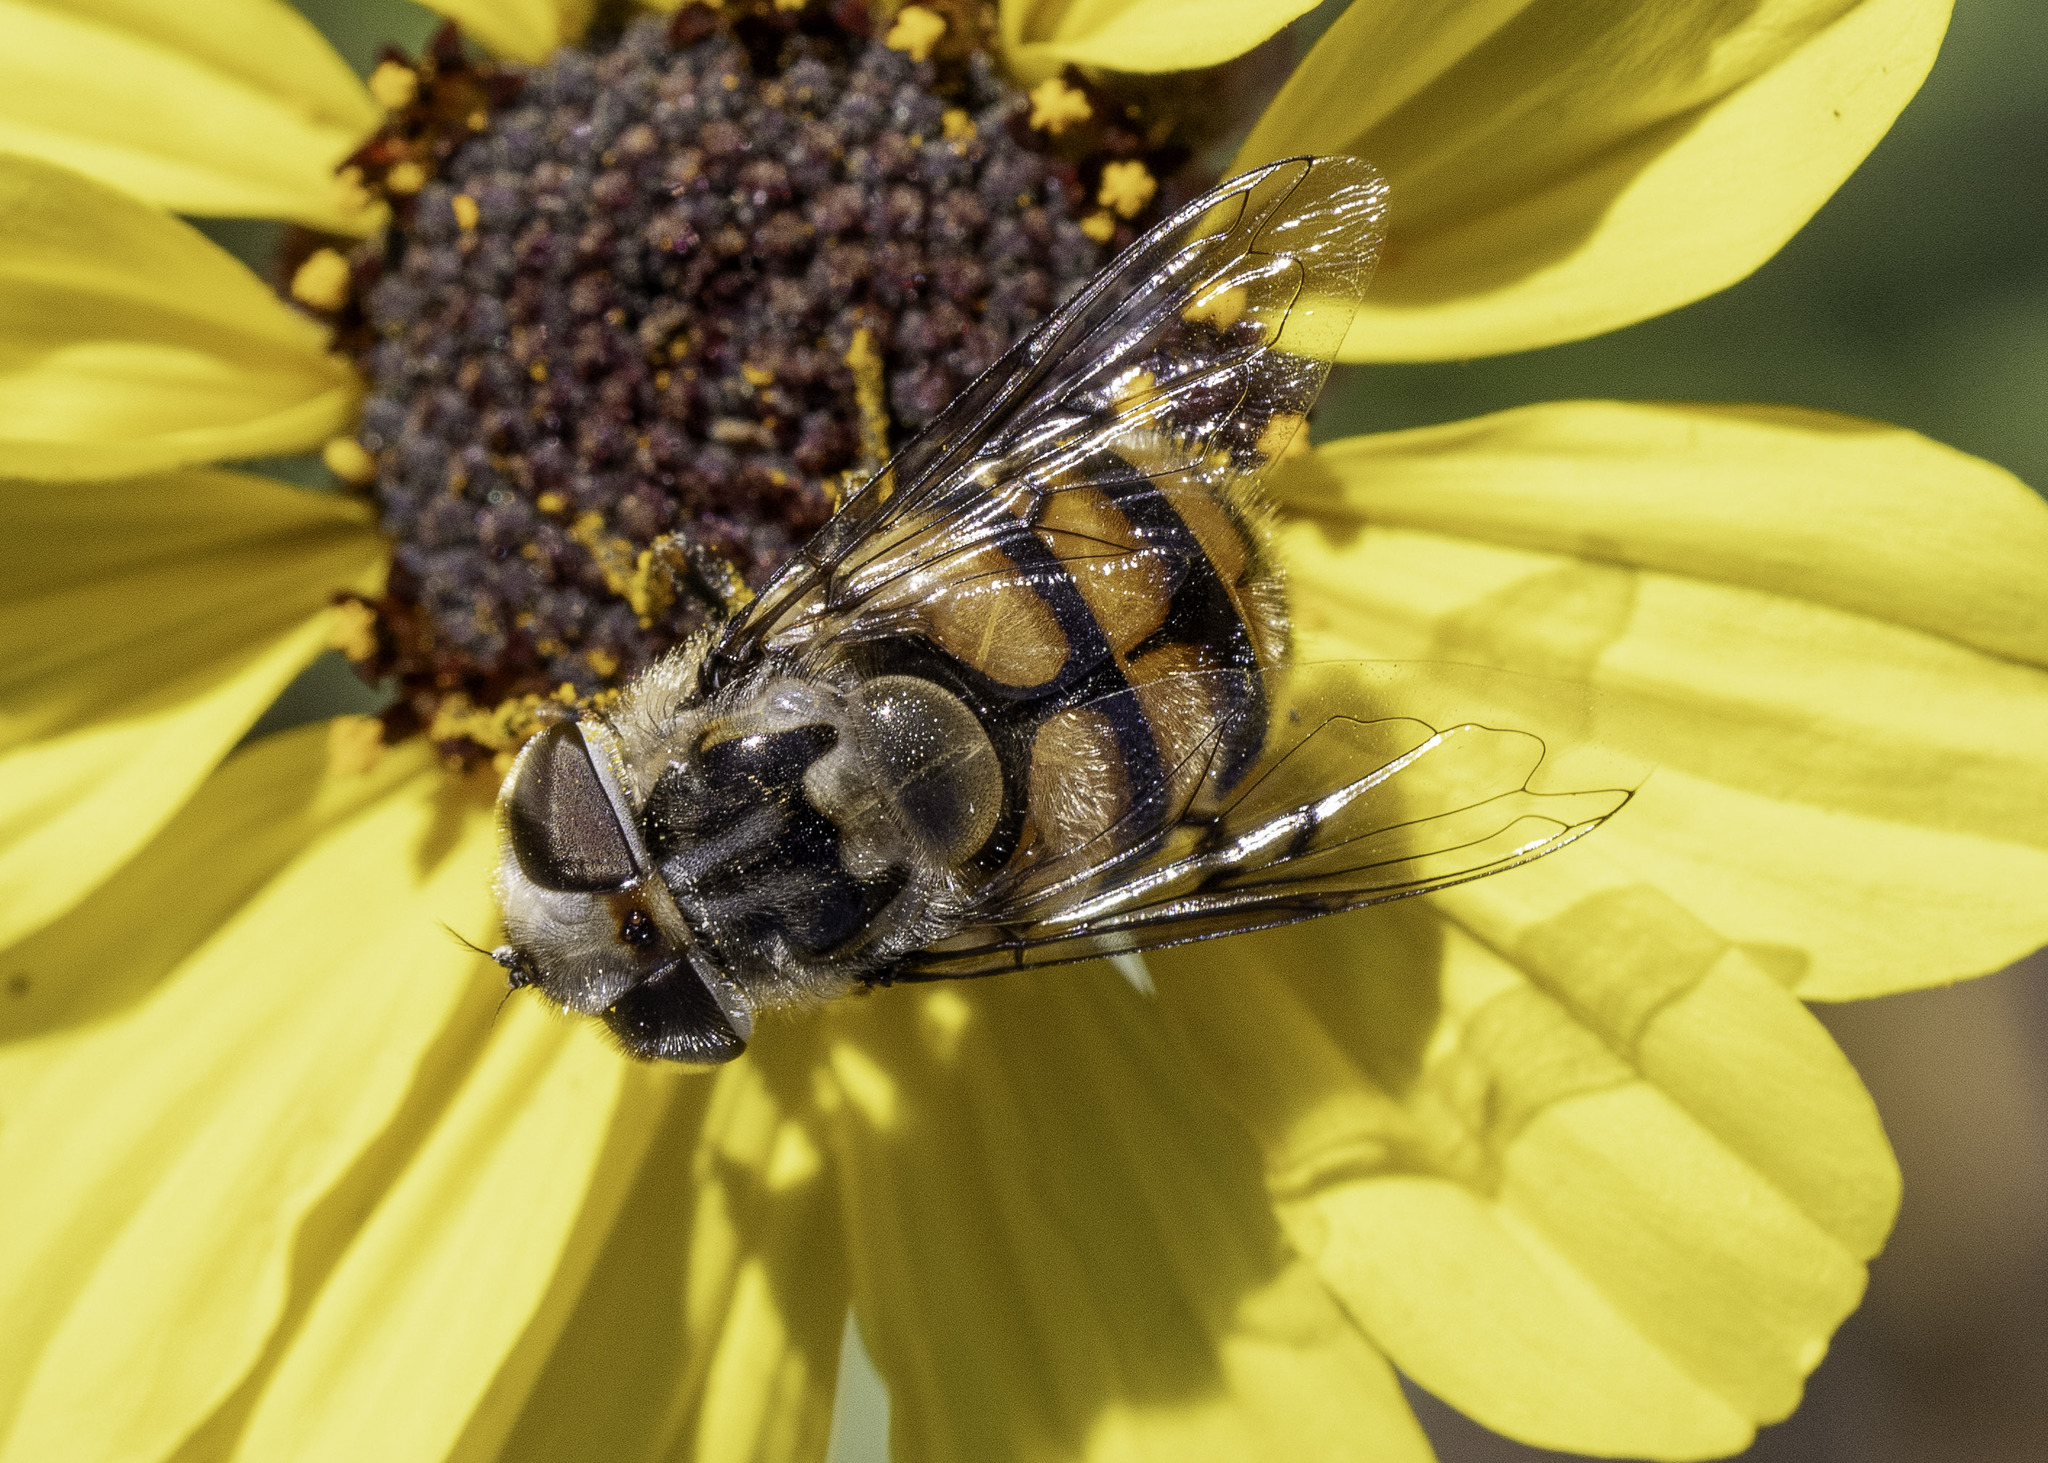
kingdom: Animalia
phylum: Arthropoda
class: Insecta
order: Diptera
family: Syrphidae
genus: Copestylum
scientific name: Copestylum avidum
